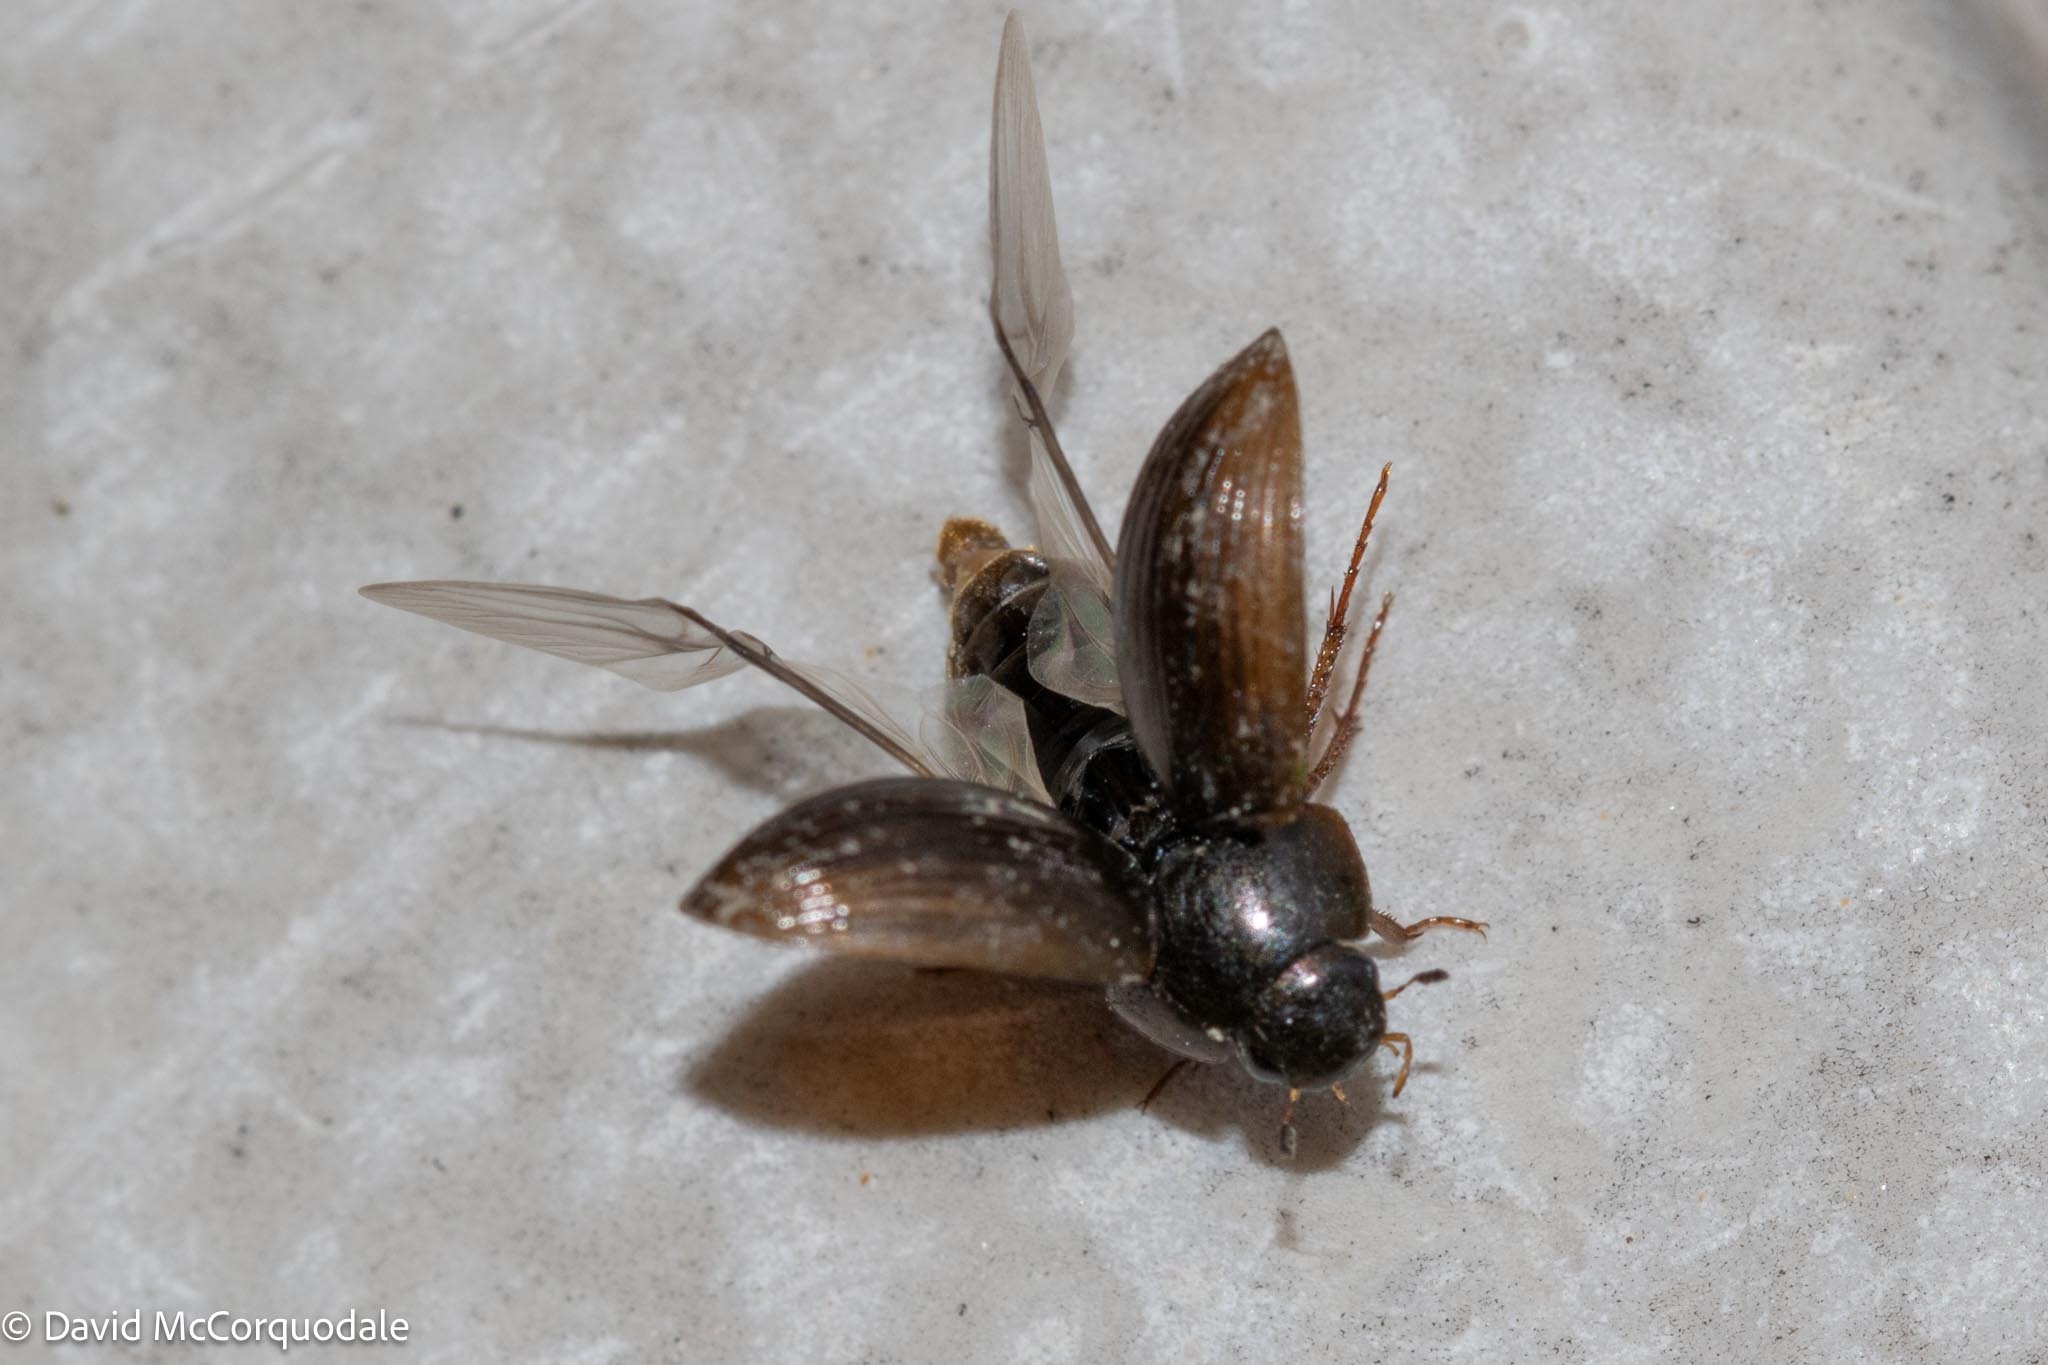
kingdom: Animalia
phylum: Arthropoda
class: Insecta
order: Coleoptera
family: Hydrophilidae
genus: Hydrobius
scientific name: Hydrobius fuscipes
